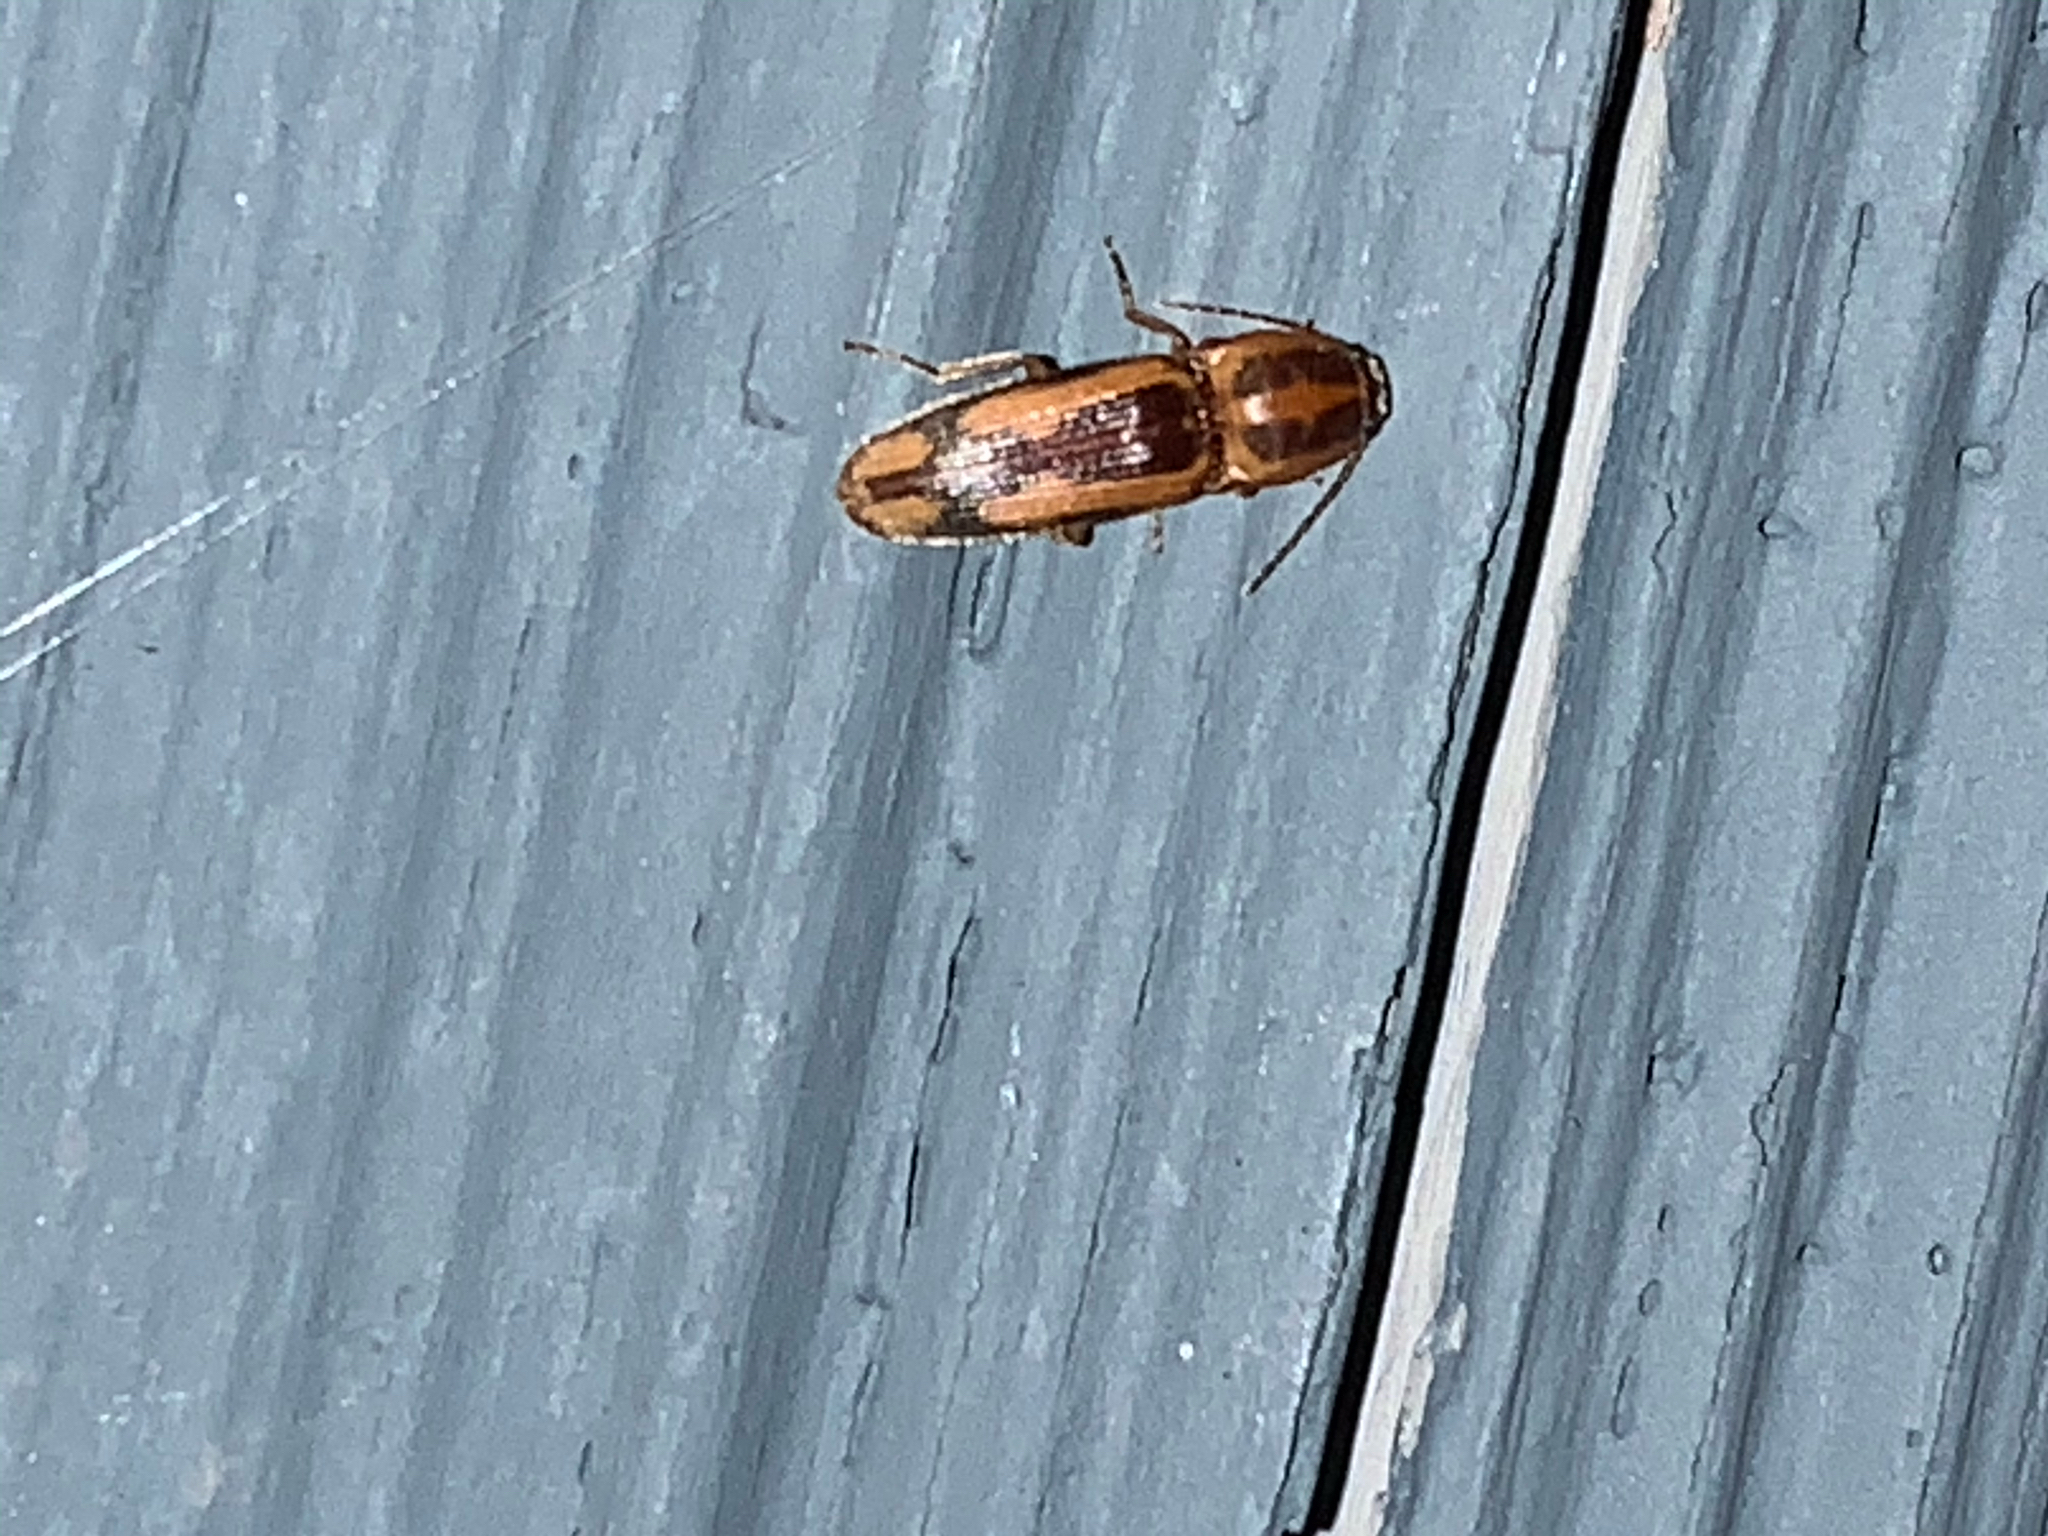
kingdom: Animalia
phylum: Arthropoda
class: Insecta
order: Coleoptera
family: Elateridae
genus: Monocrepidius
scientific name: Monocrepidius
